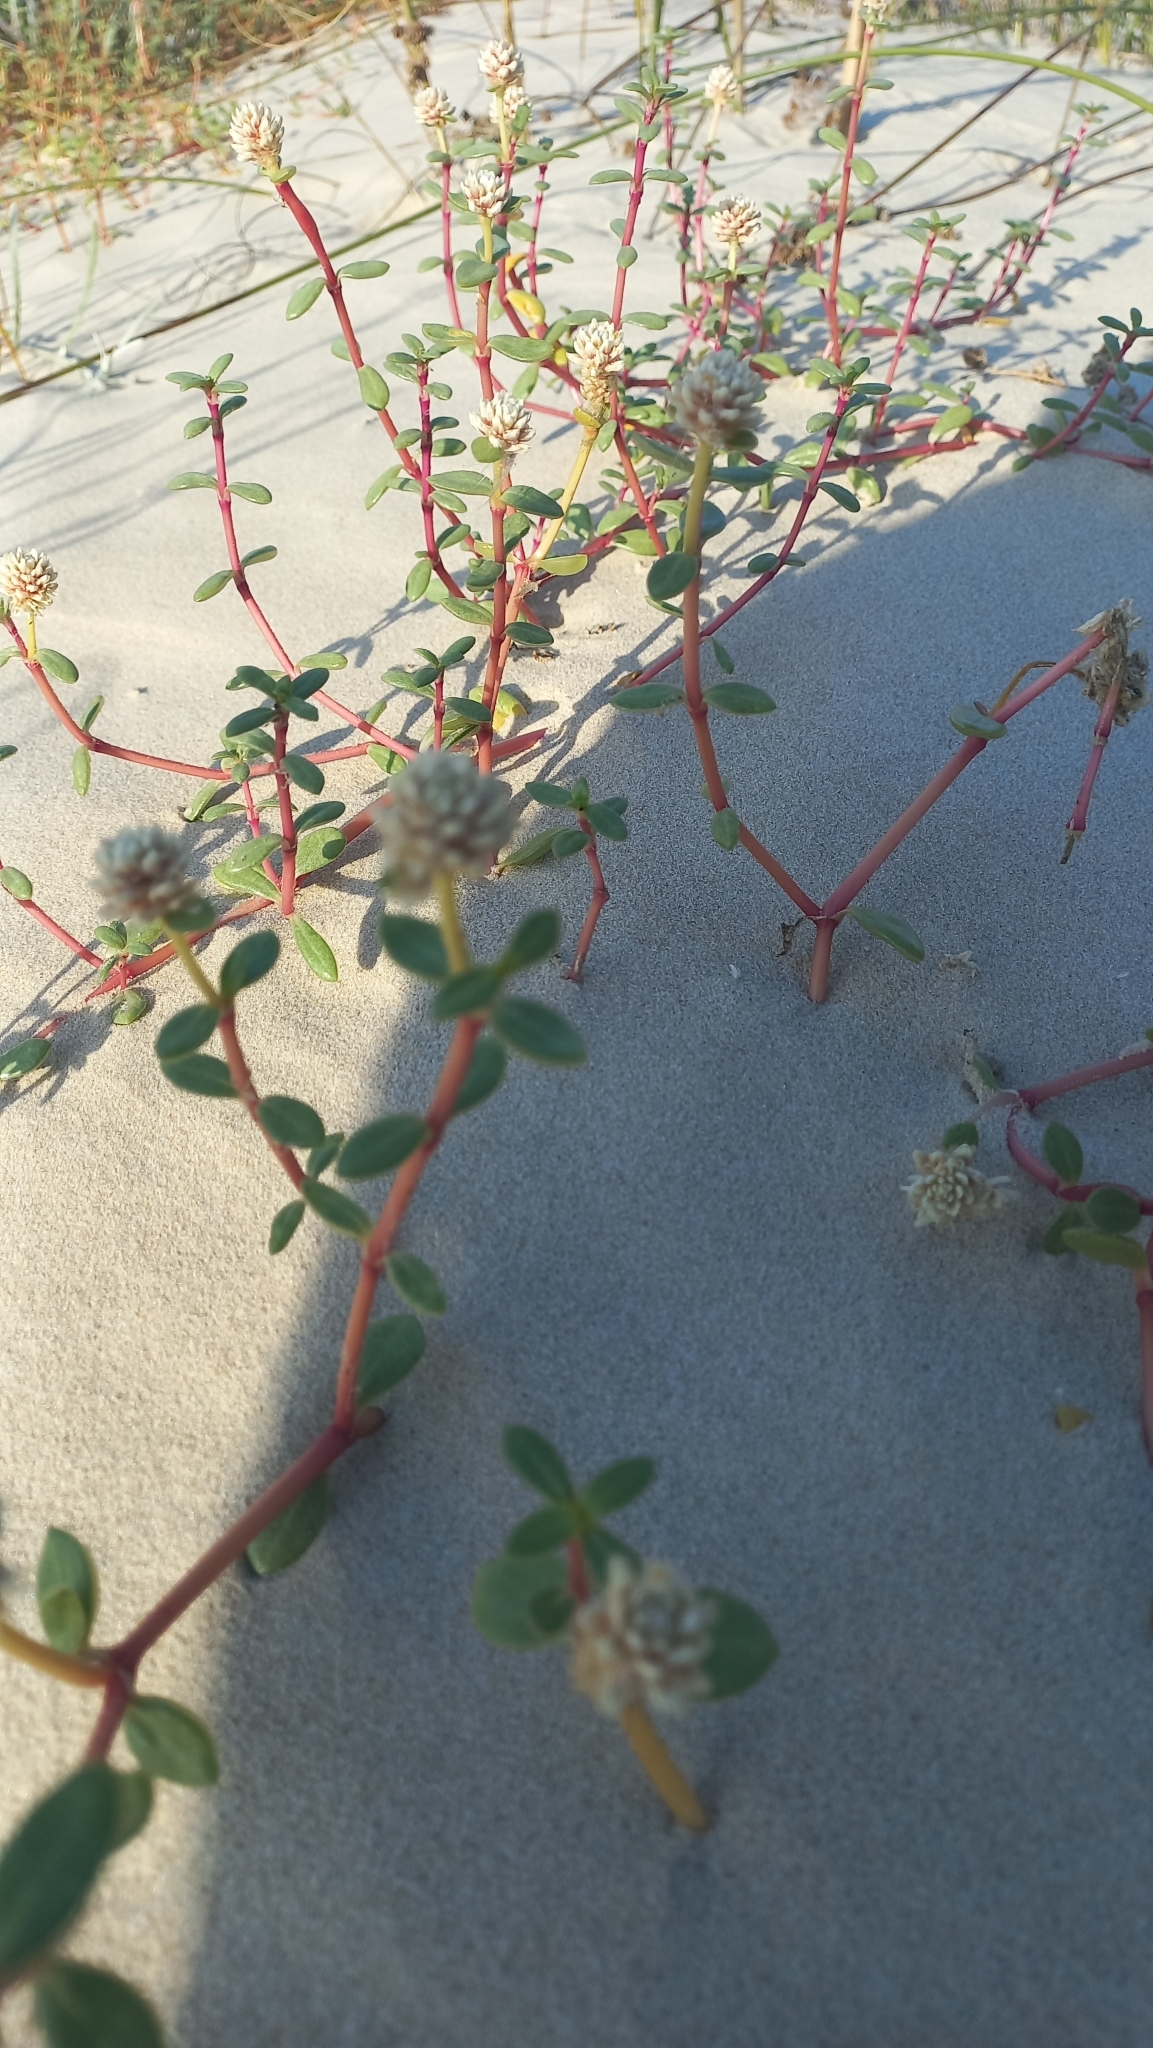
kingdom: Plantae
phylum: Tracheophyta
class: Magnoliopsida
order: Caryophyllales
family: Amaranthaceae
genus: Gomphrena
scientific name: Gomphrena portulacoides
